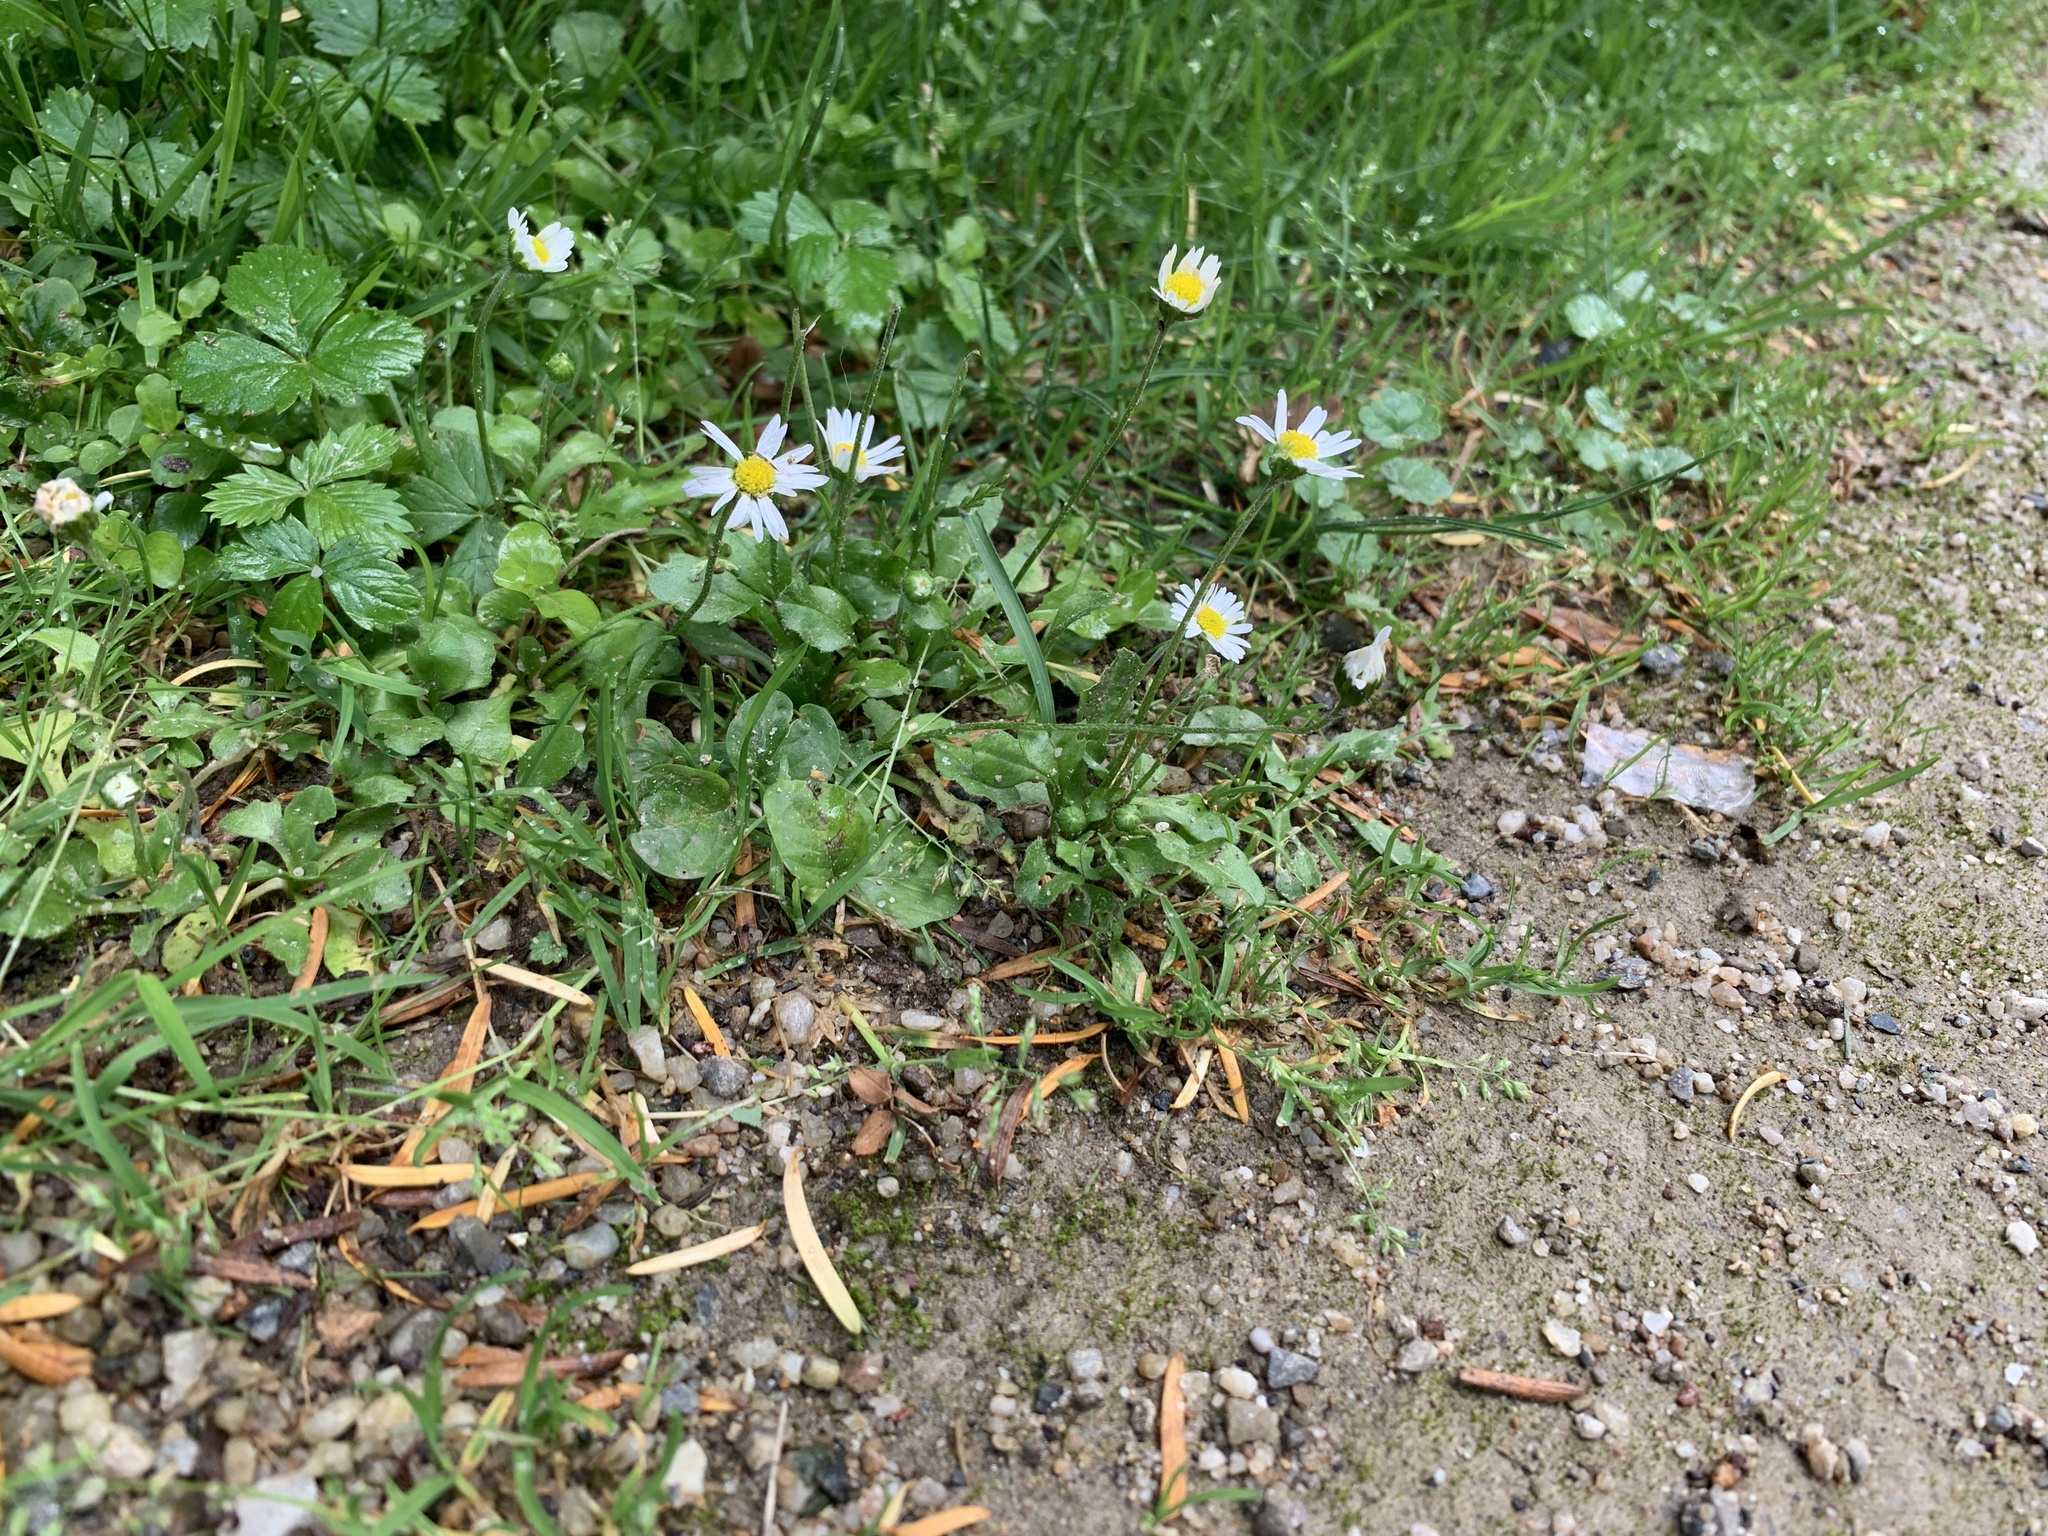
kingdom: Plantae
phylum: Tracheophyta
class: Magnoliopsida
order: Asterales
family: Asteraceae
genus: Bellis
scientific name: Bellis perennis
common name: Lawndaisy
